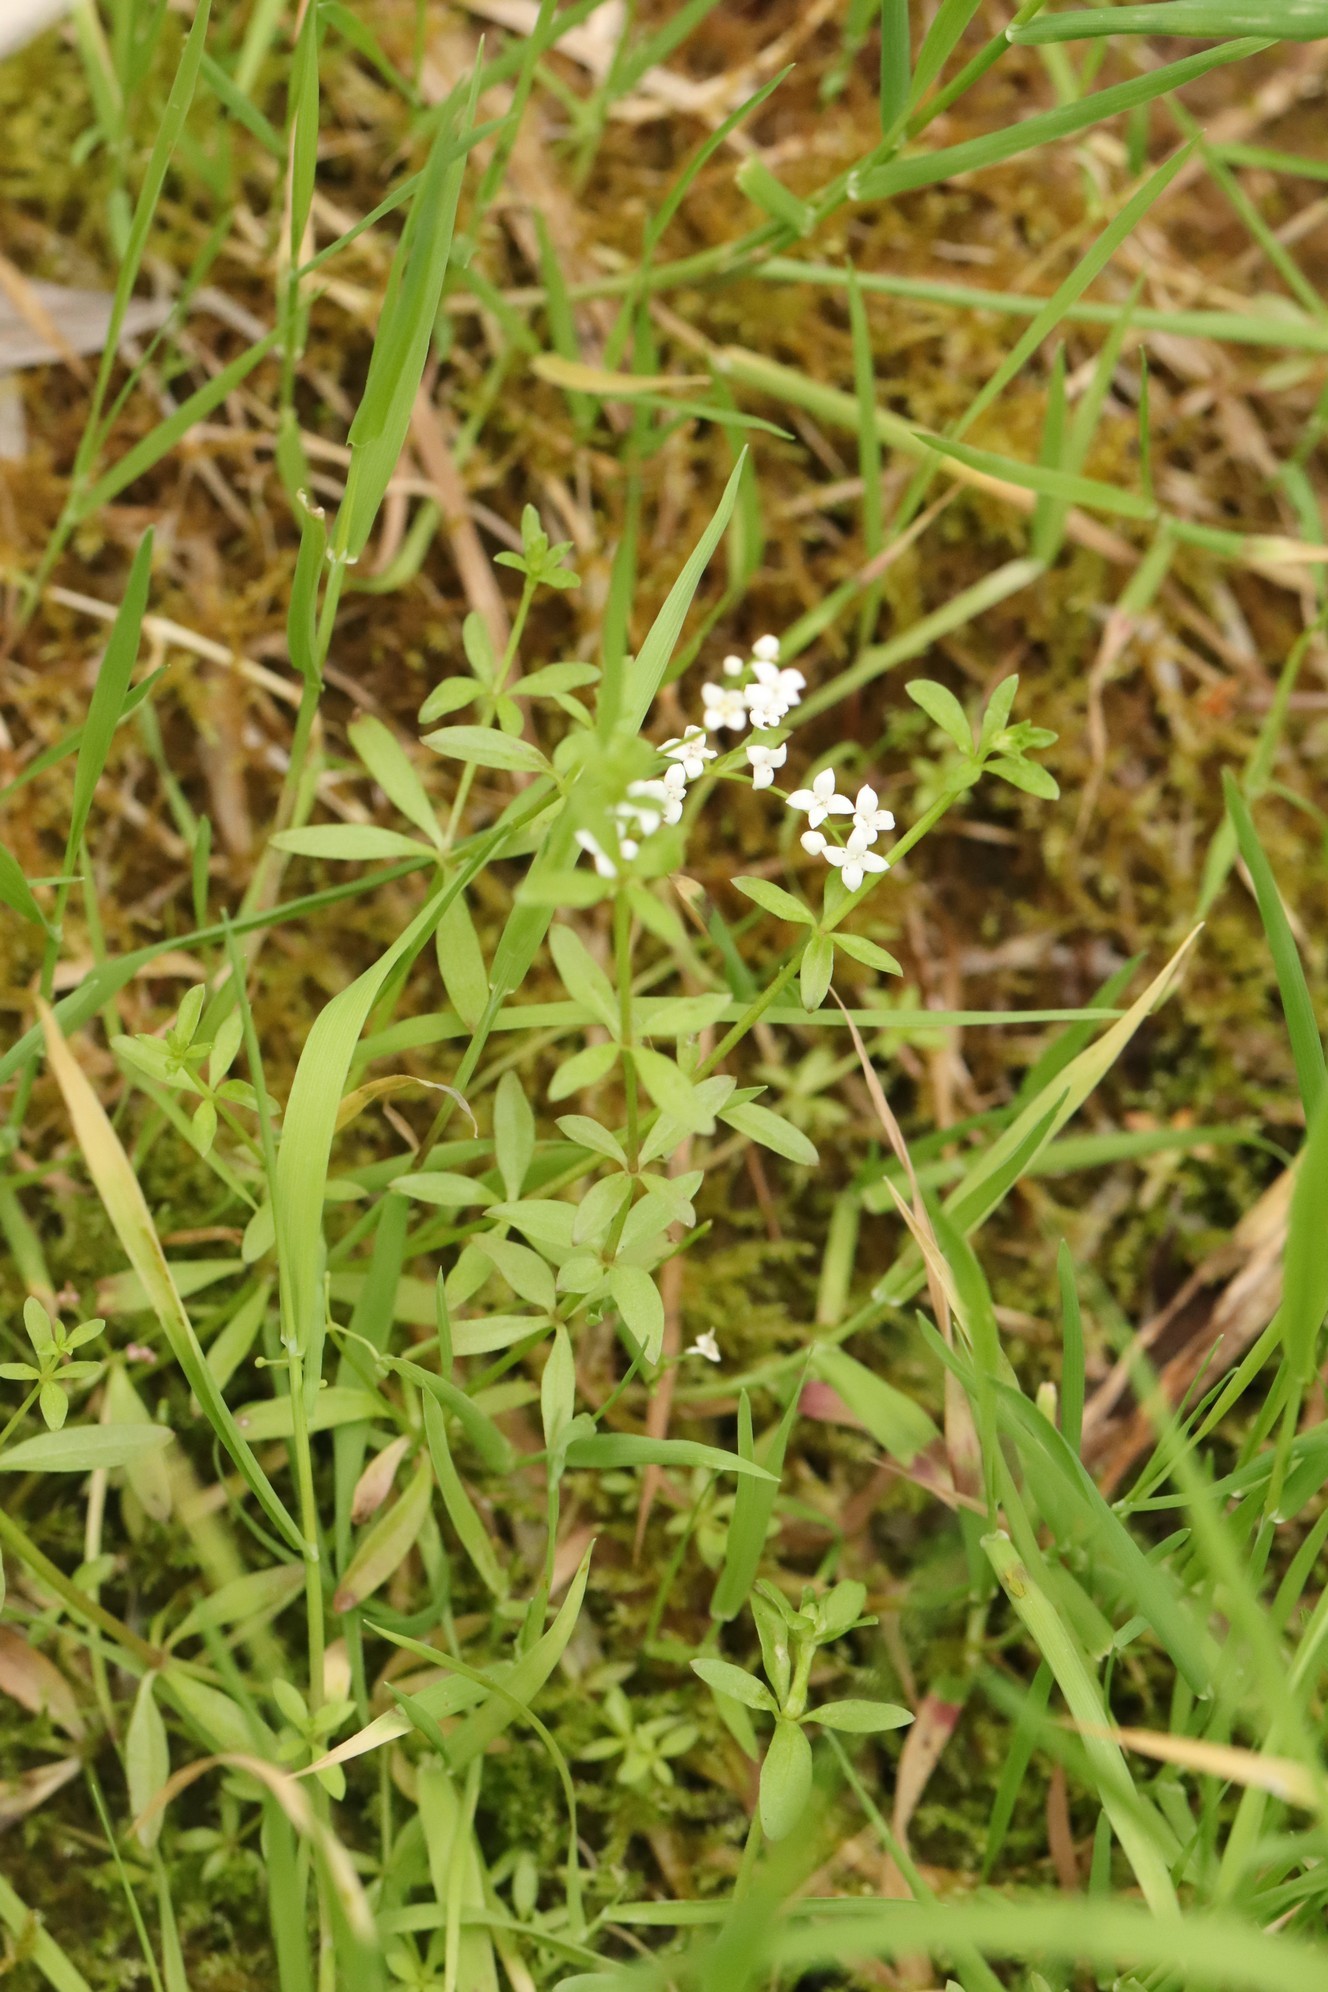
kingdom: Plantae
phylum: Tracheophyta
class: Magnoliopsida
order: Gentianales
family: Rubiaceae
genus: Galium
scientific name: Galium palustre
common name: Common marsh-bedstraw
